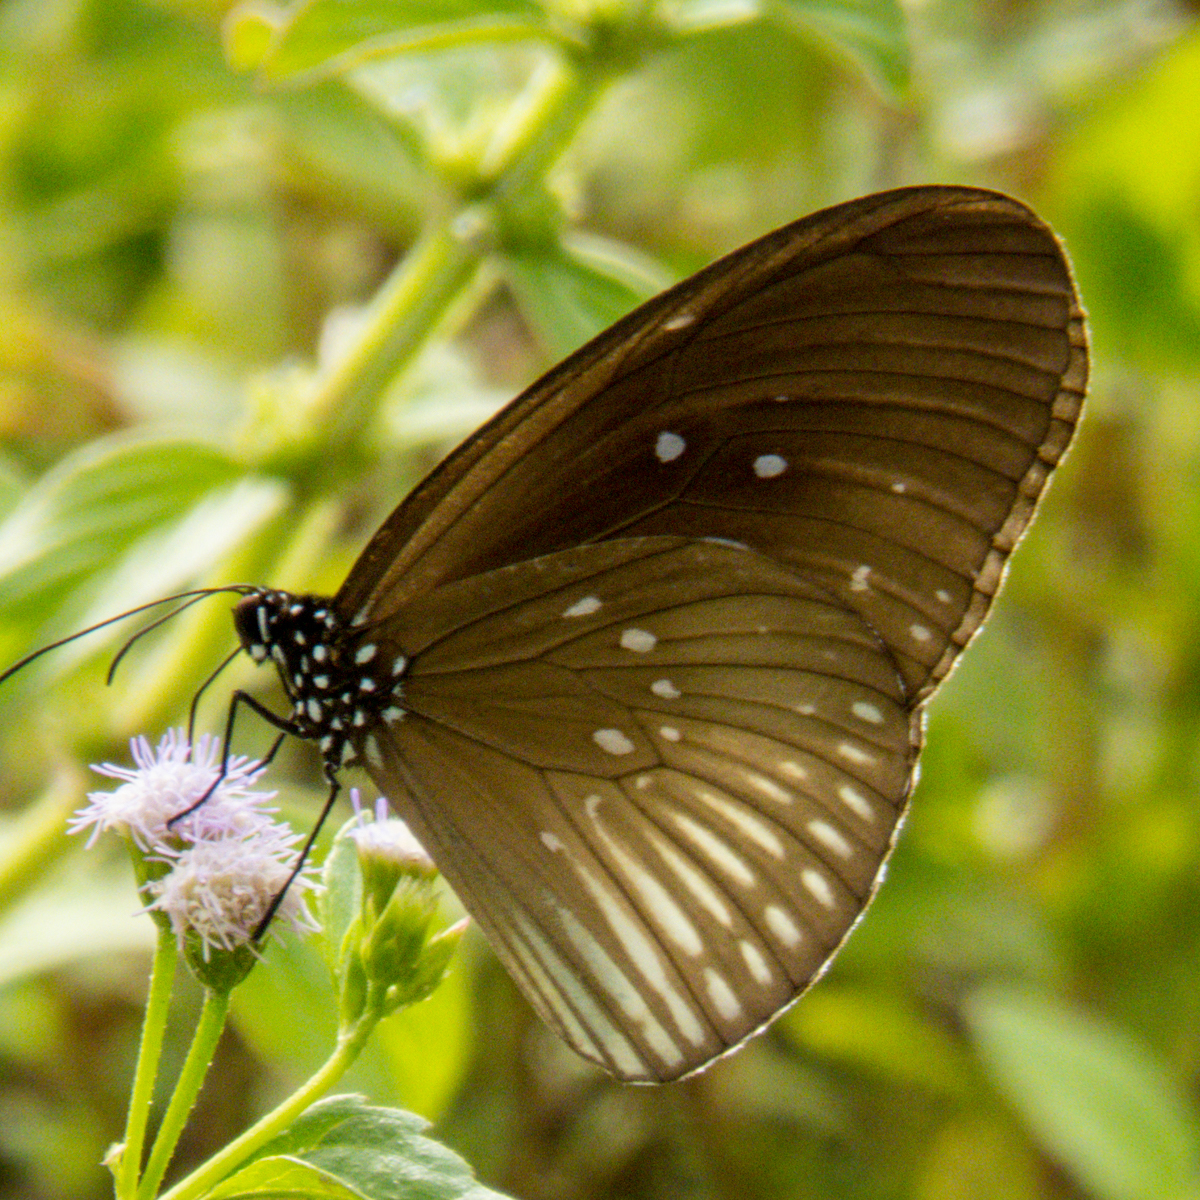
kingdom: Animalia
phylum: Arthropoda
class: Insecta
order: Lepidoptera
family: Nymphalidae
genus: Euploea
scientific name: Euploea eyndhovii
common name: Striped black crow butterfly
